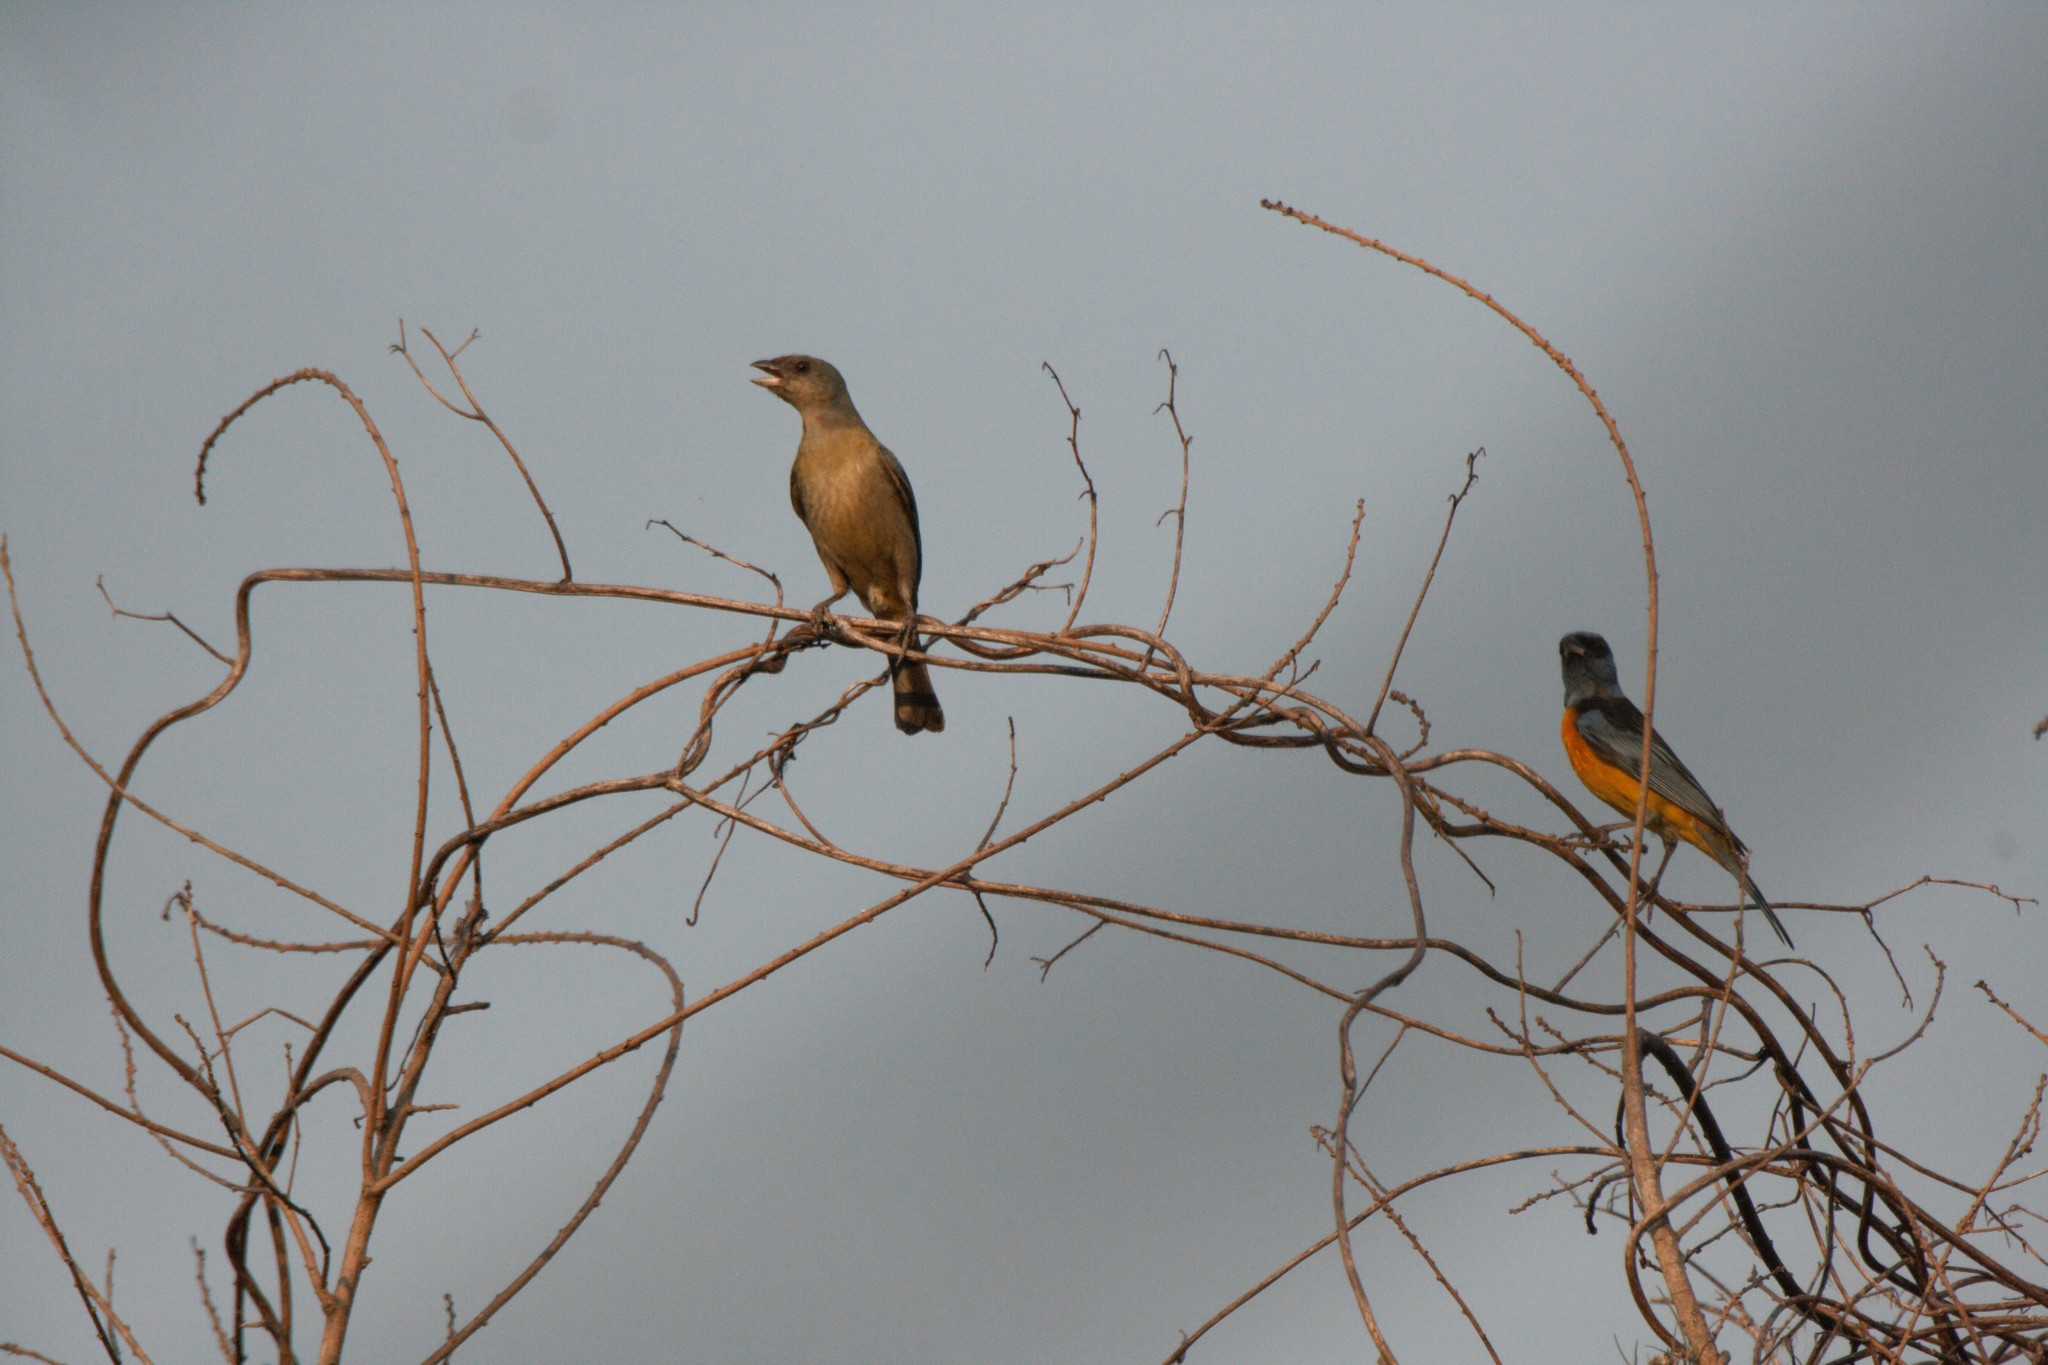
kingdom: Animalia
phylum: Chordata
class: Aves
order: Passeriformes
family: Thraupidae
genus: Rauenia
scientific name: Rauenia bonariensis
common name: Blue-and-yellow tanager
